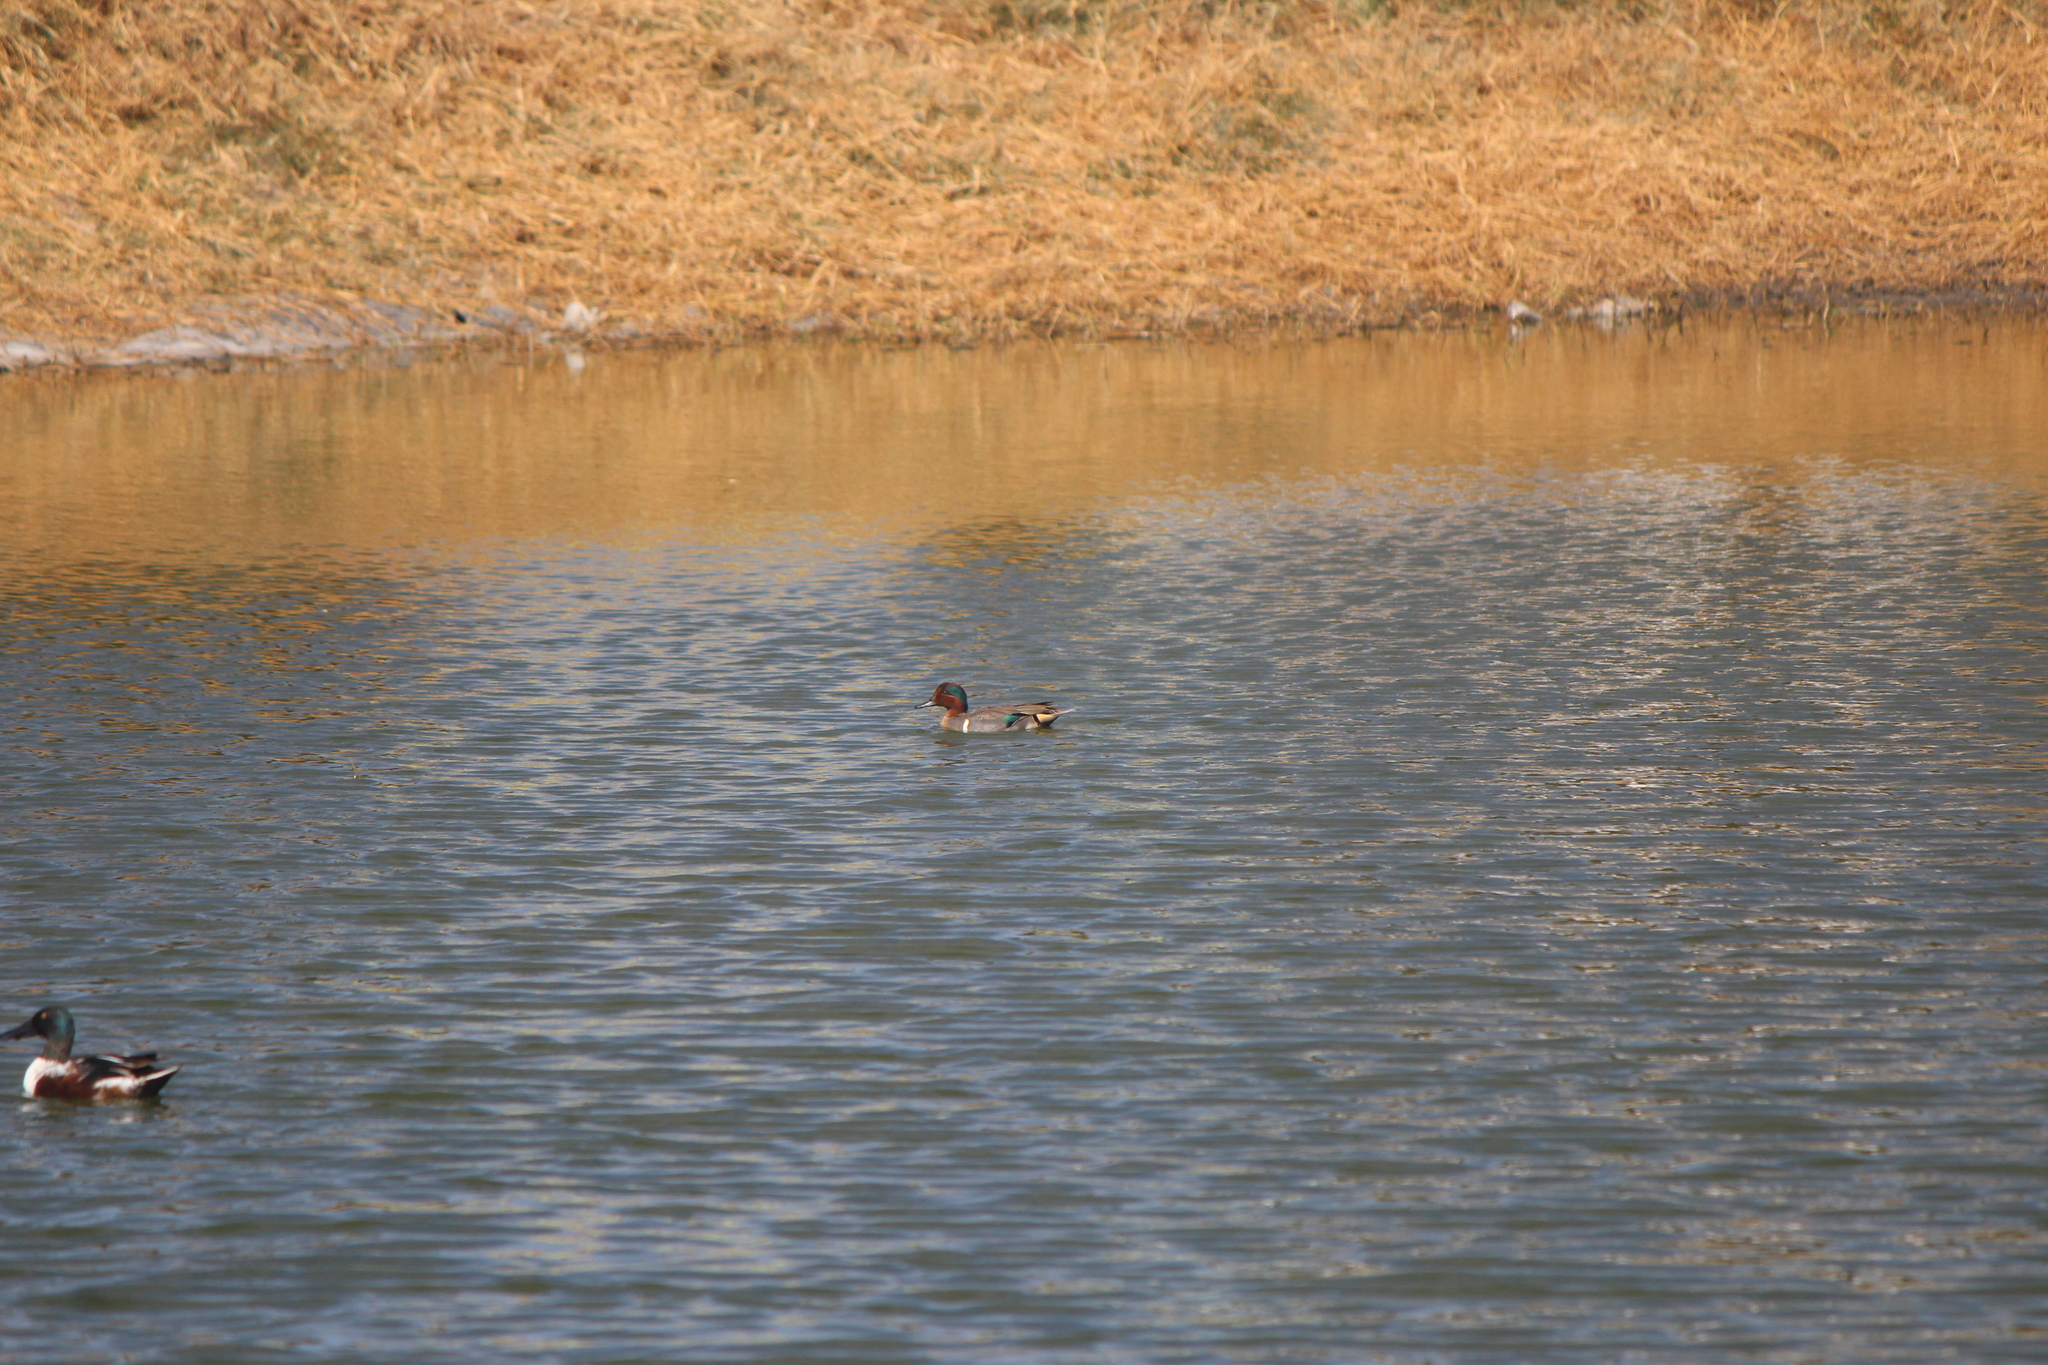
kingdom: Animalia
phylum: Chordata
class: Aves
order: Anseriformes
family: Anatidae
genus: Anas
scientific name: Anas carolinensis
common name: Green-winged teal
